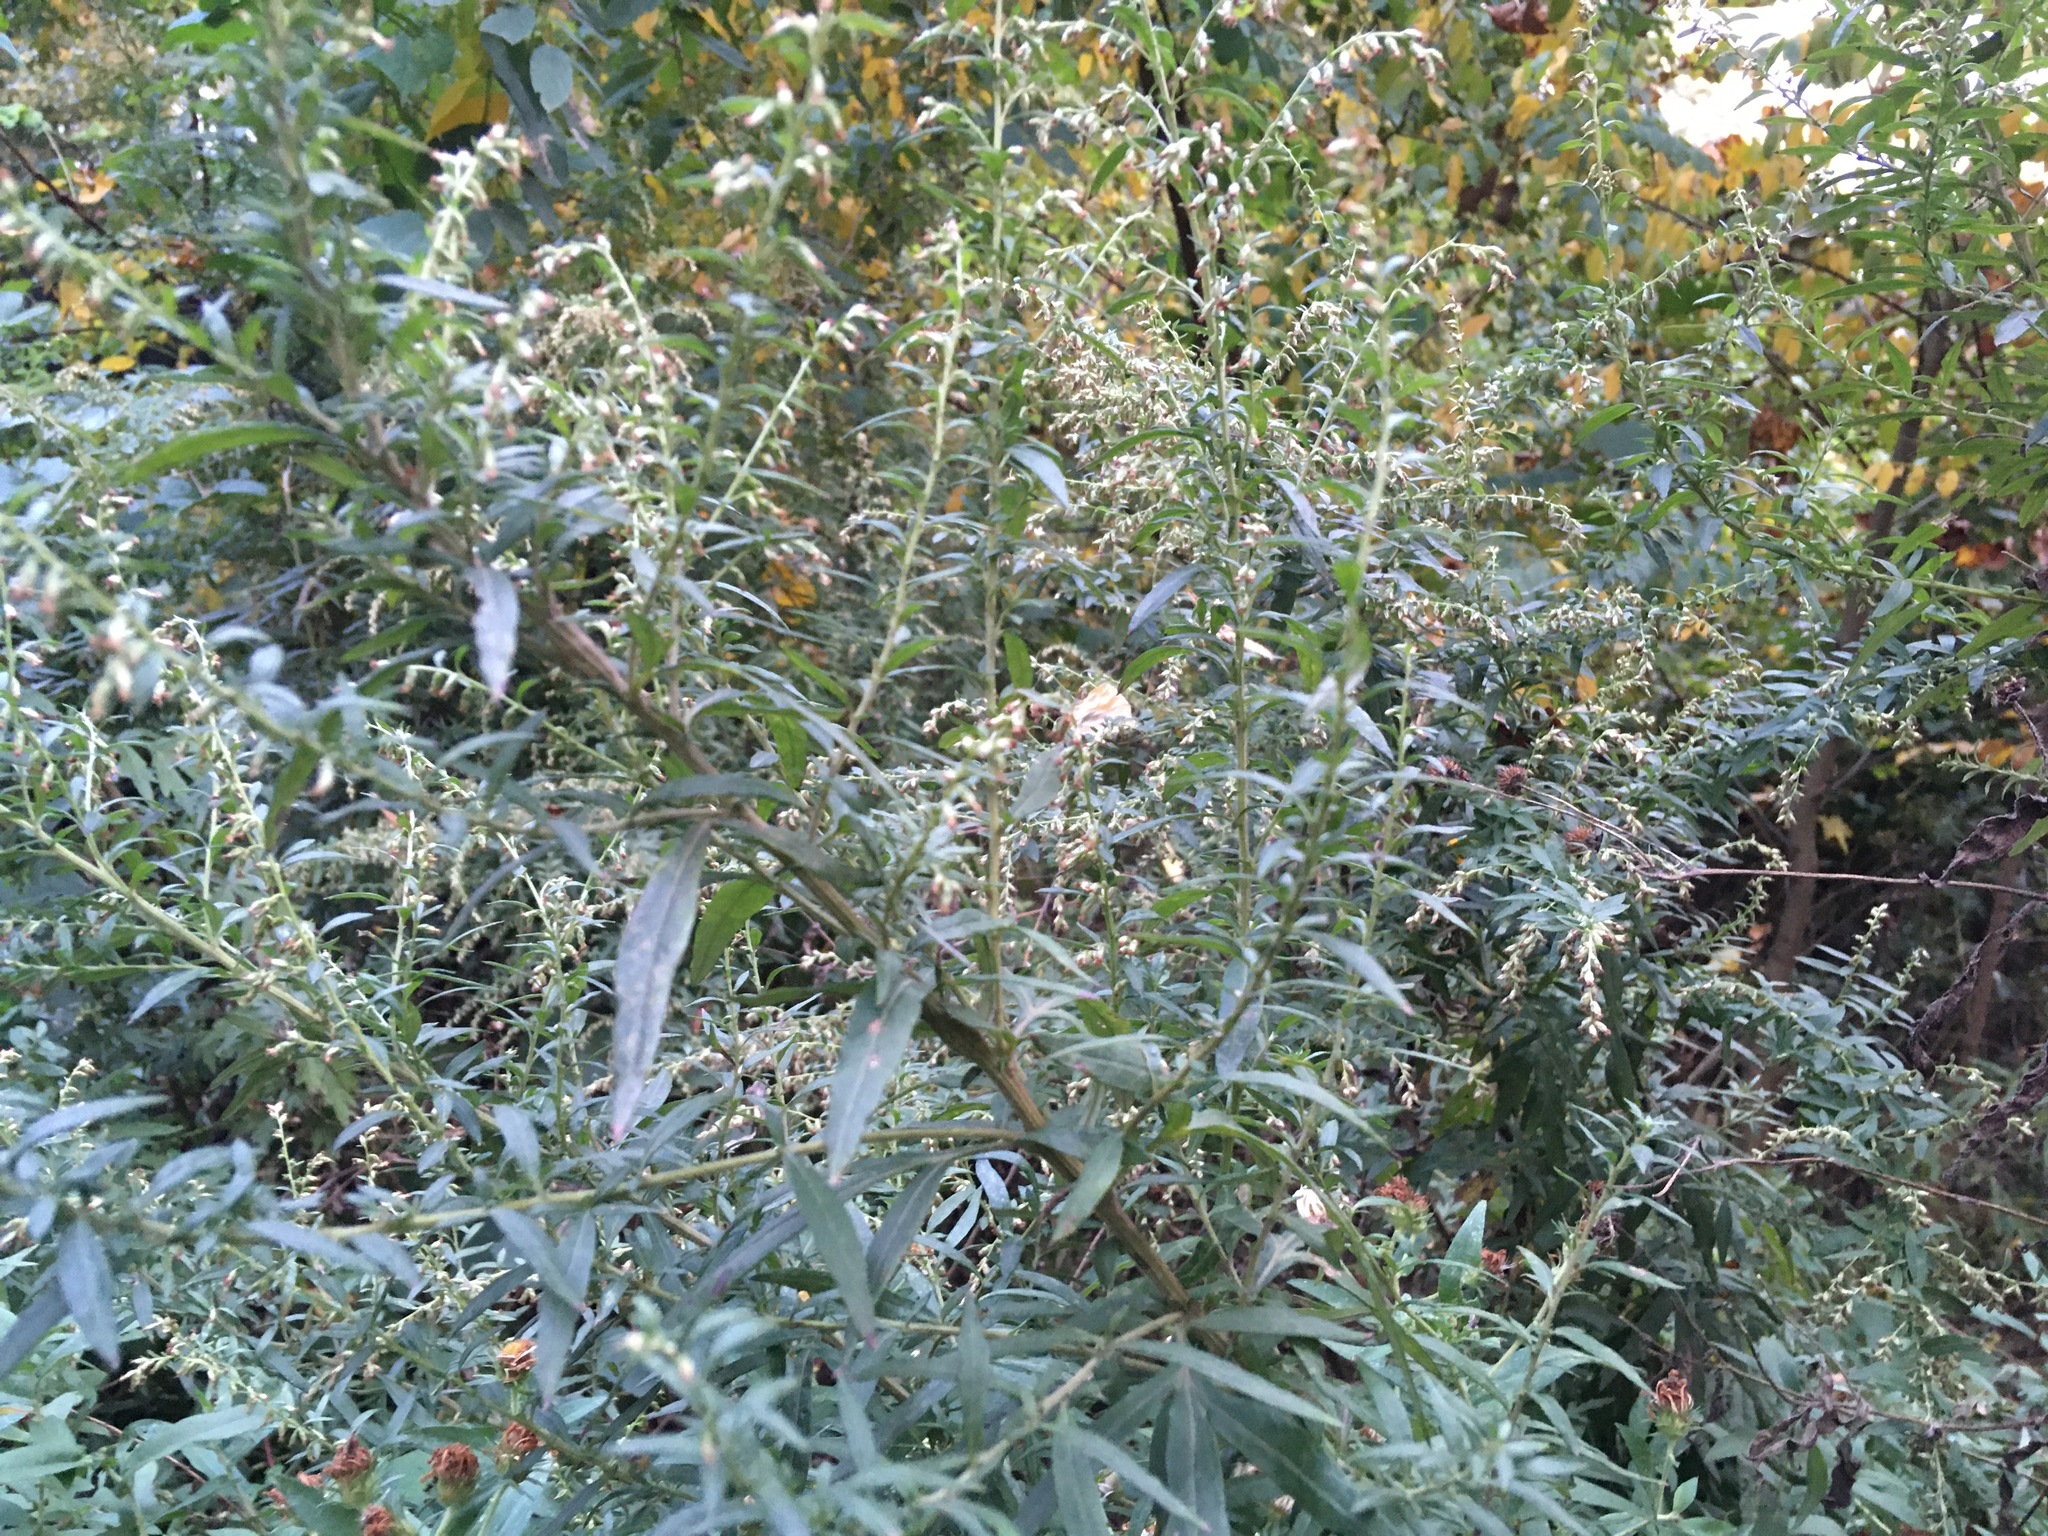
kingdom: Plantae
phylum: Tracheophyta
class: Magnoliopsida
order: Asterales
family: Asteraceae
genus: Artemisia
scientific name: Artemisia vulgaris
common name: Mugwort
